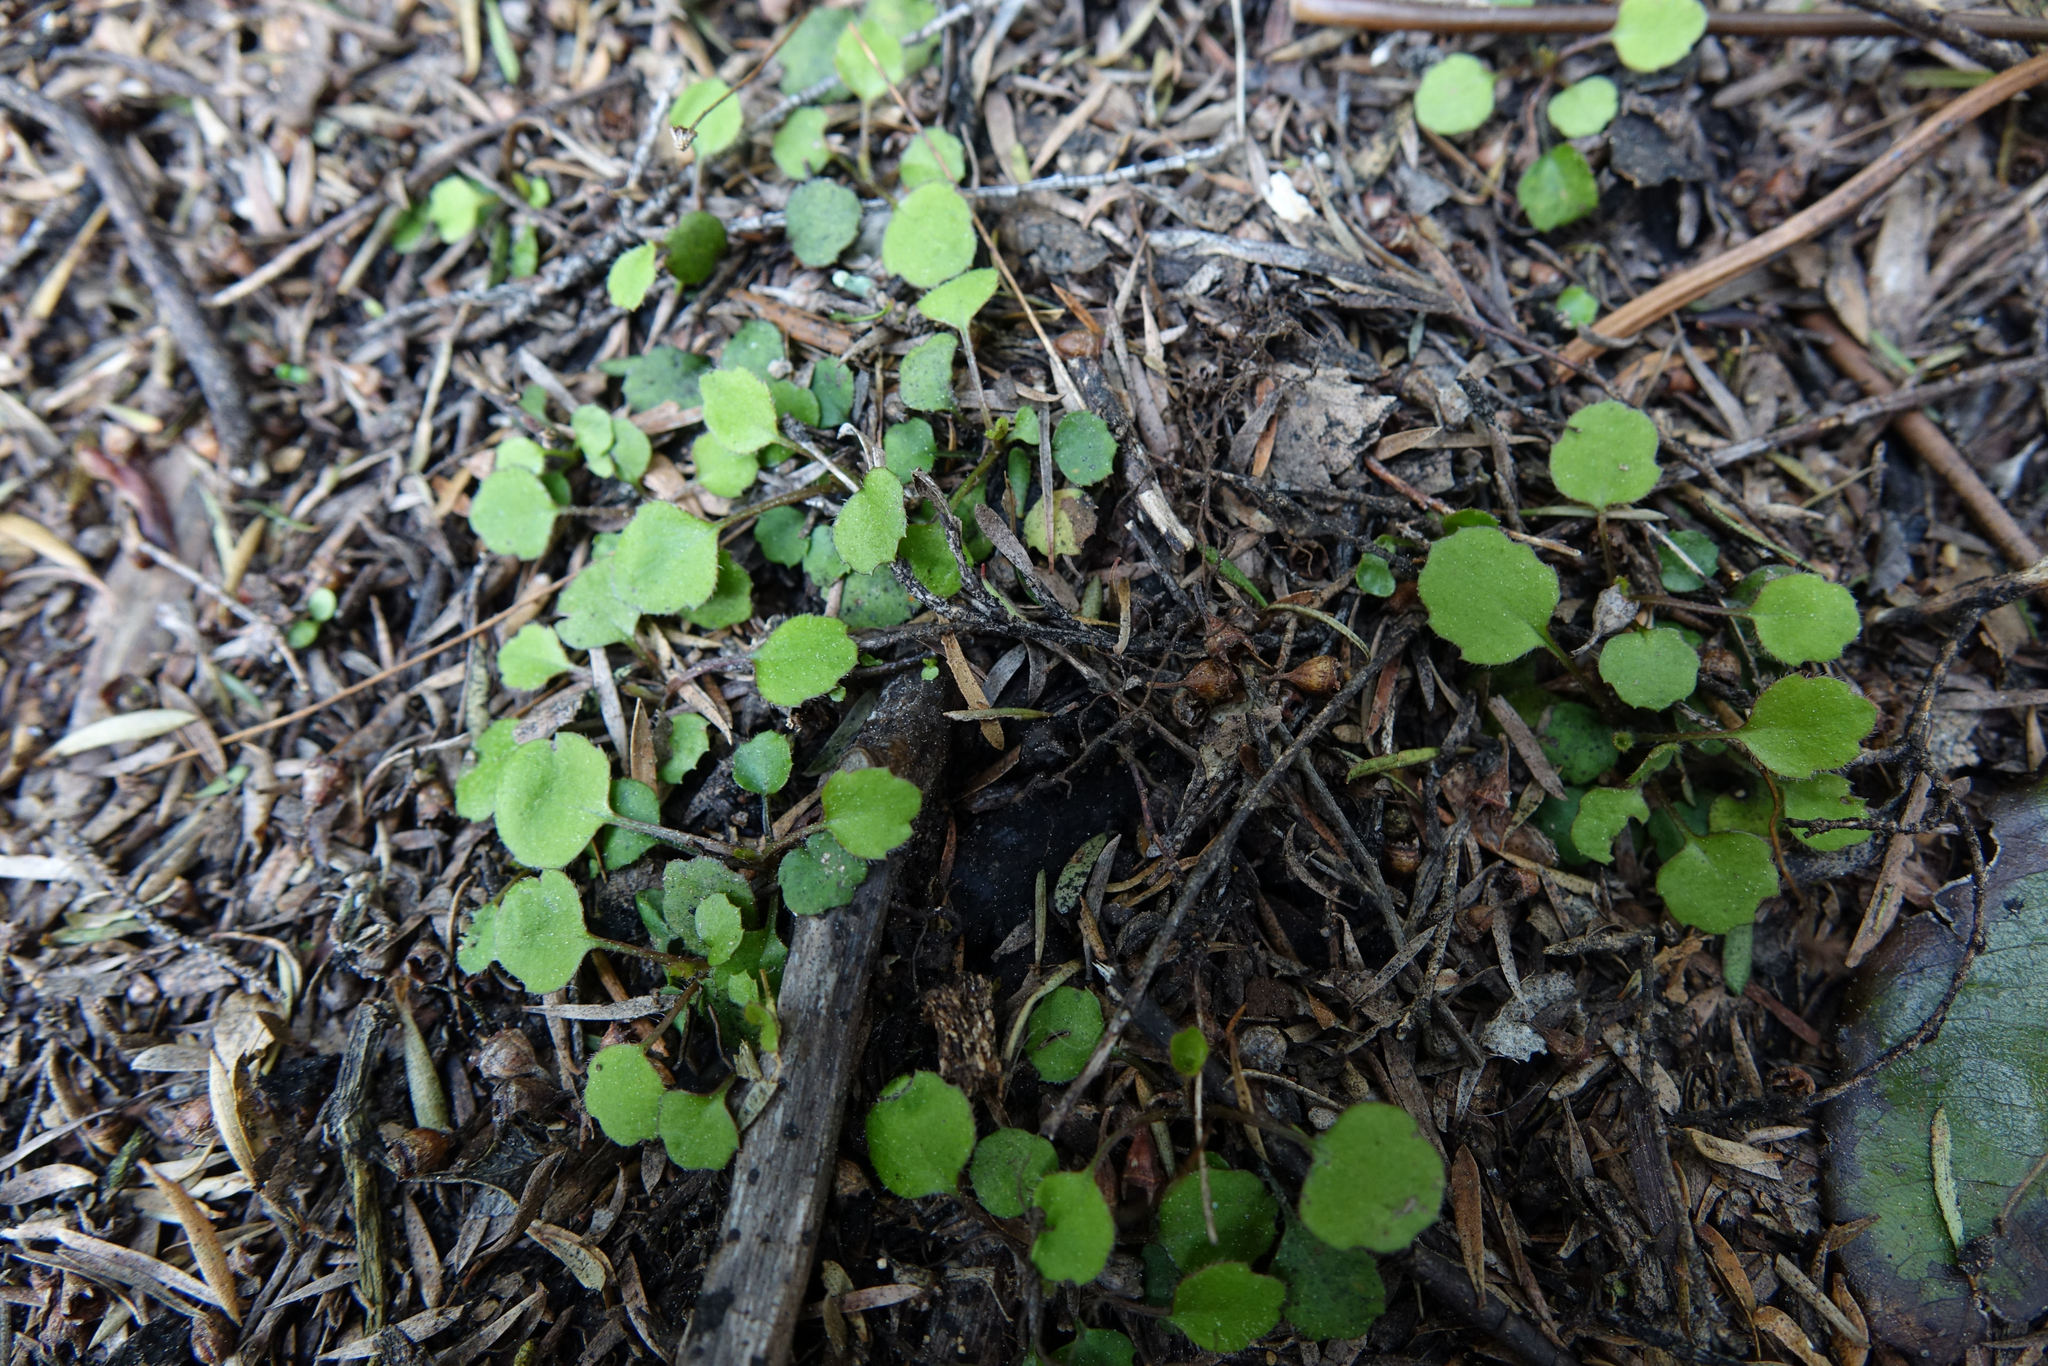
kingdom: Plantae
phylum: Tracheophyta
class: Magnoliopsida
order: Asterales
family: Asteraceae
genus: Lagenophora
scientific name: Lagenophora strangulata
